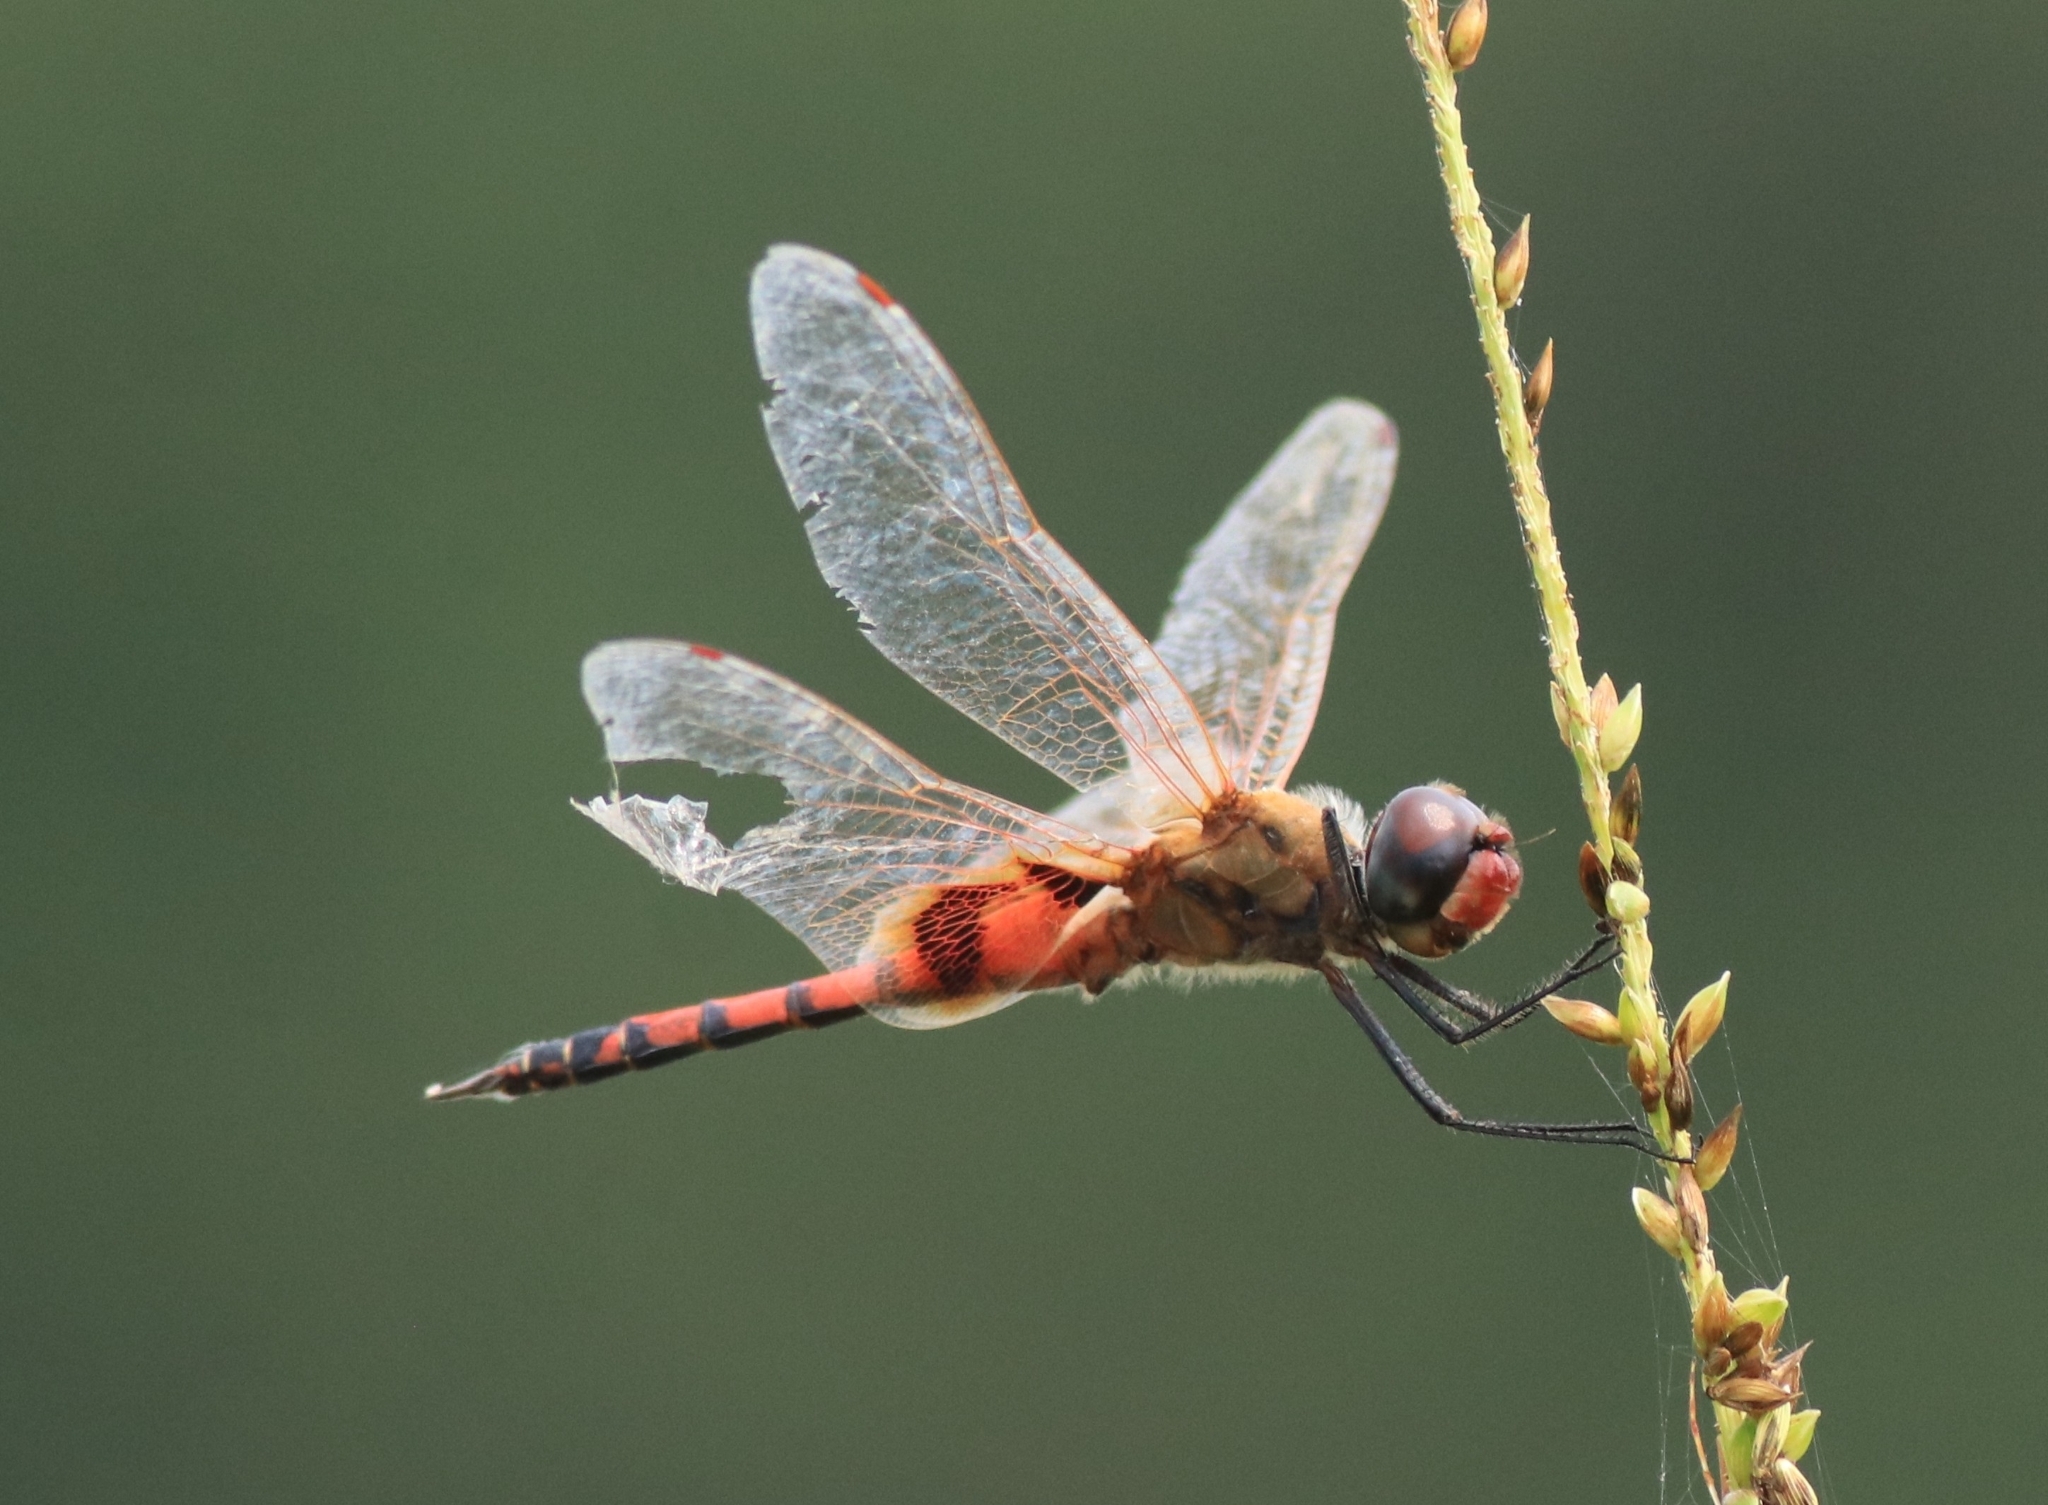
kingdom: Animalia
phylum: Arthropoda
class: Insecta
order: Odonata
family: Libellulidae
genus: Tramea
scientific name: Tramea basilaris
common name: Keyhole glider
